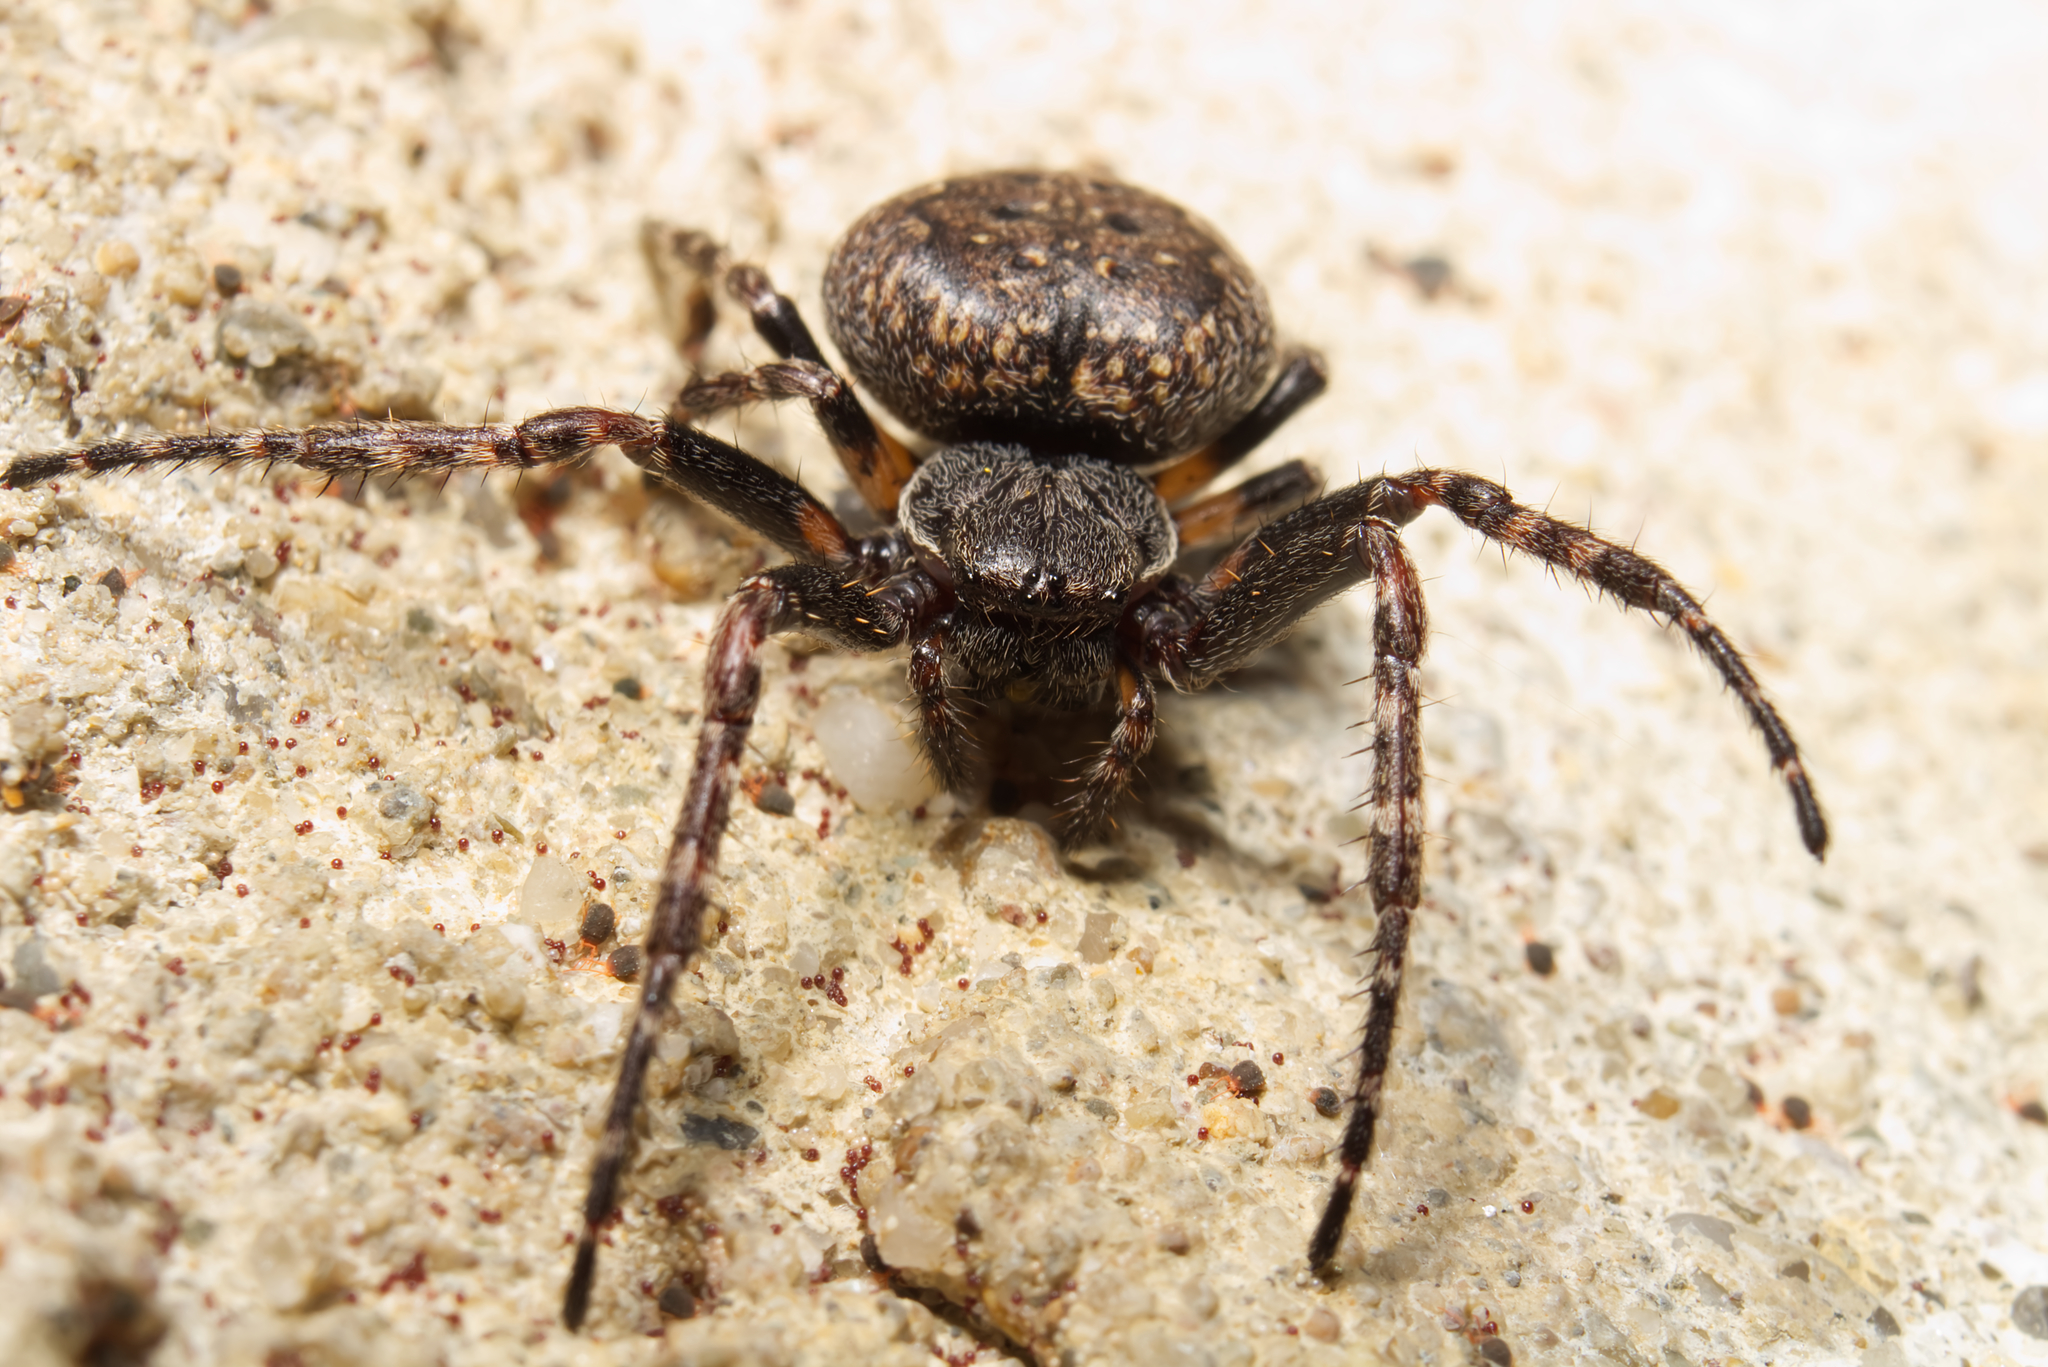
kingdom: Animalia
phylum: Arthropoda
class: Arachnida
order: Araneae
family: Araneidae
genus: Nuctenea
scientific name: Nuctenea umbratica
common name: Toad spider
